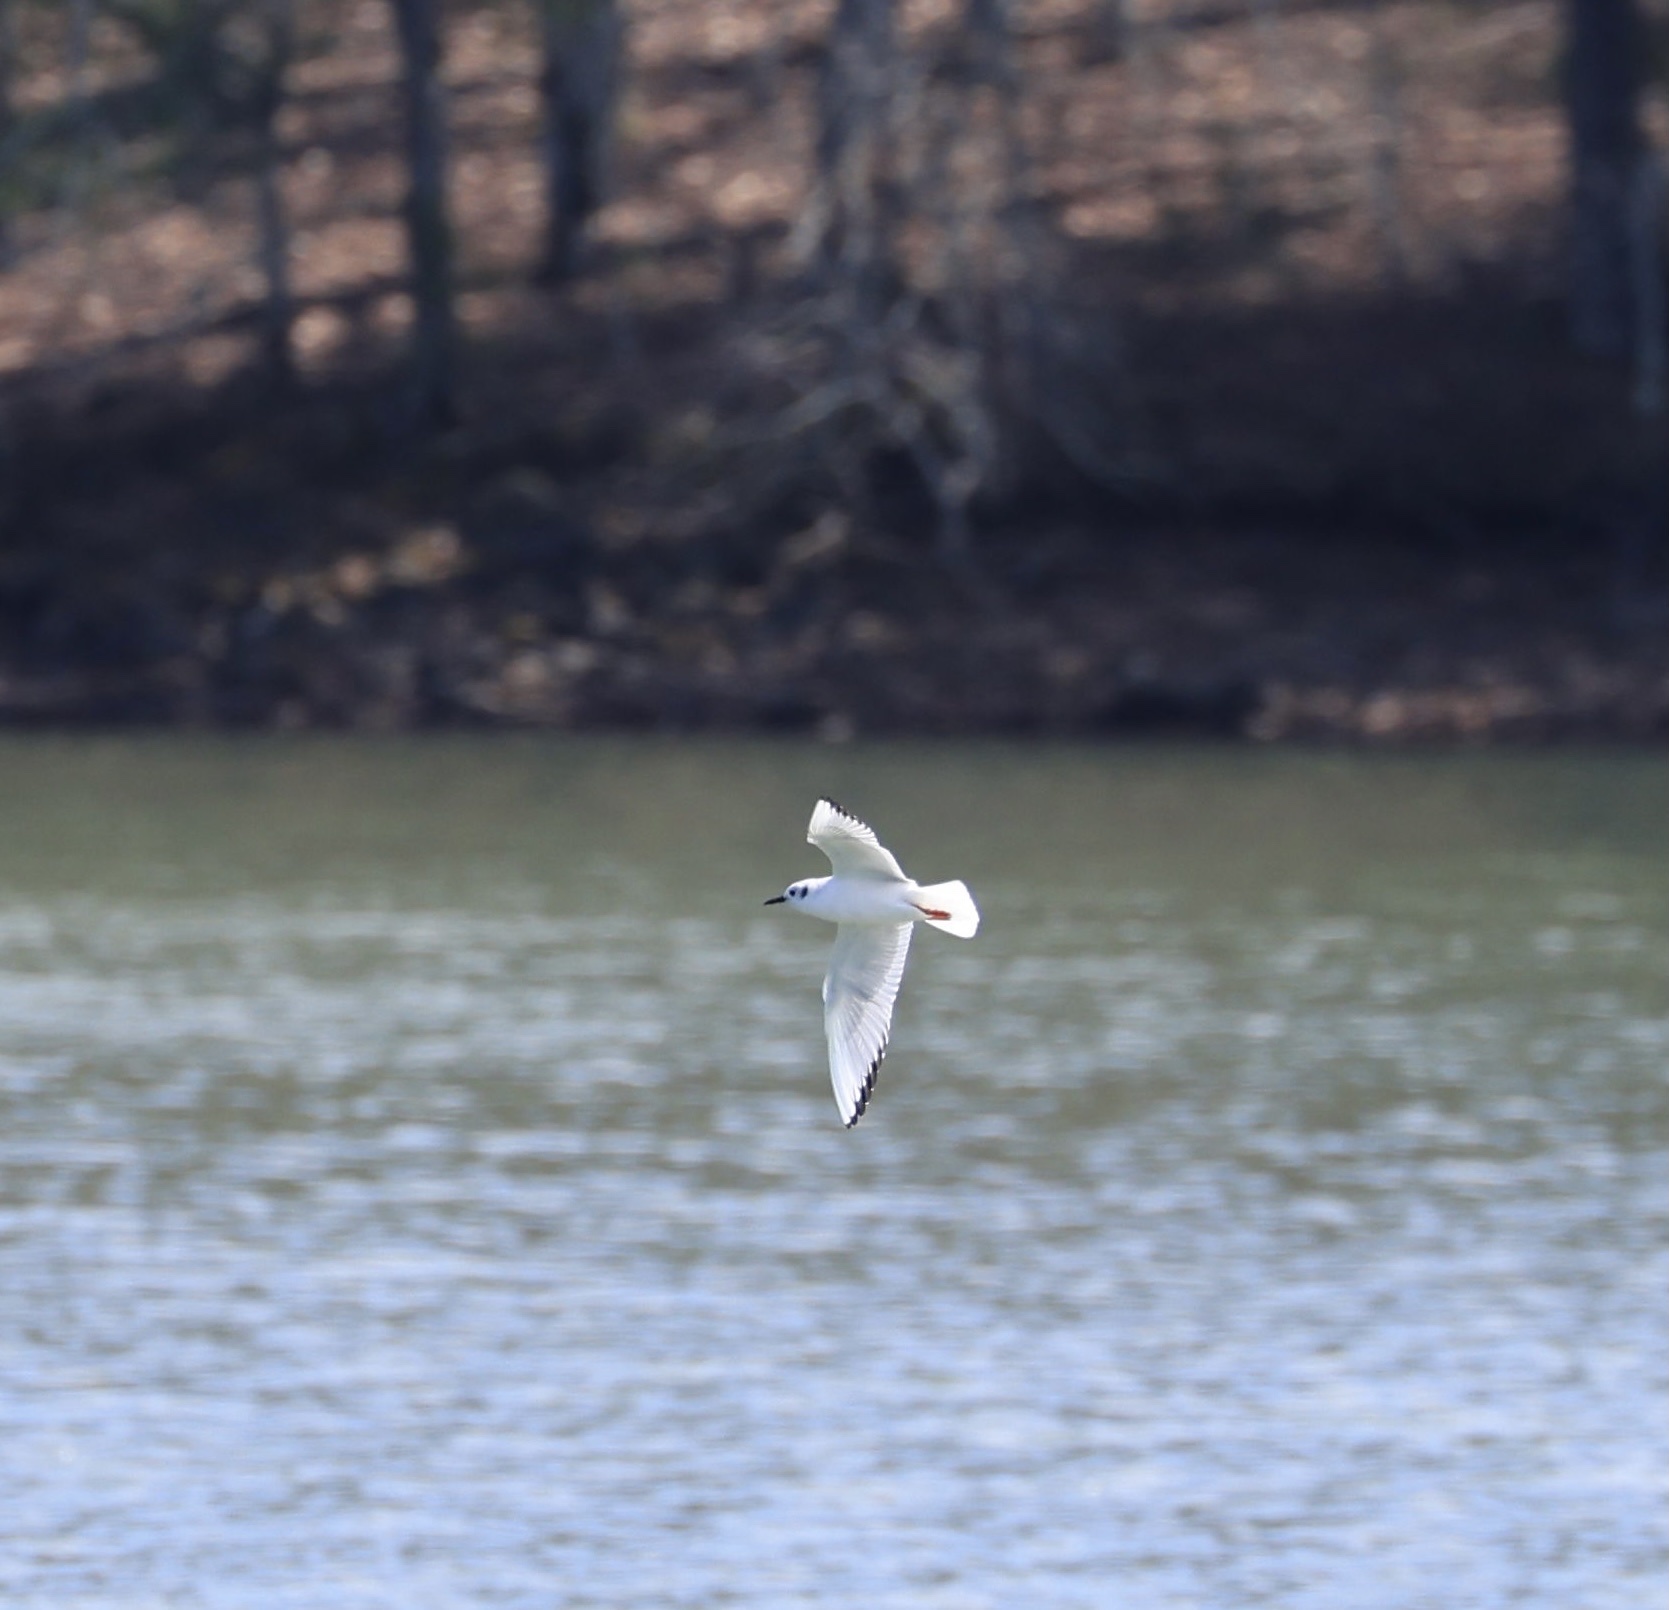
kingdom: Animalia
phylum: Chordata
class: Aves
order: Charadriiformes
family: Laridae
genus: Chroicocephalus
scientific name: Chroicocephalus philadelphia
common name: Bonaparte's gull
